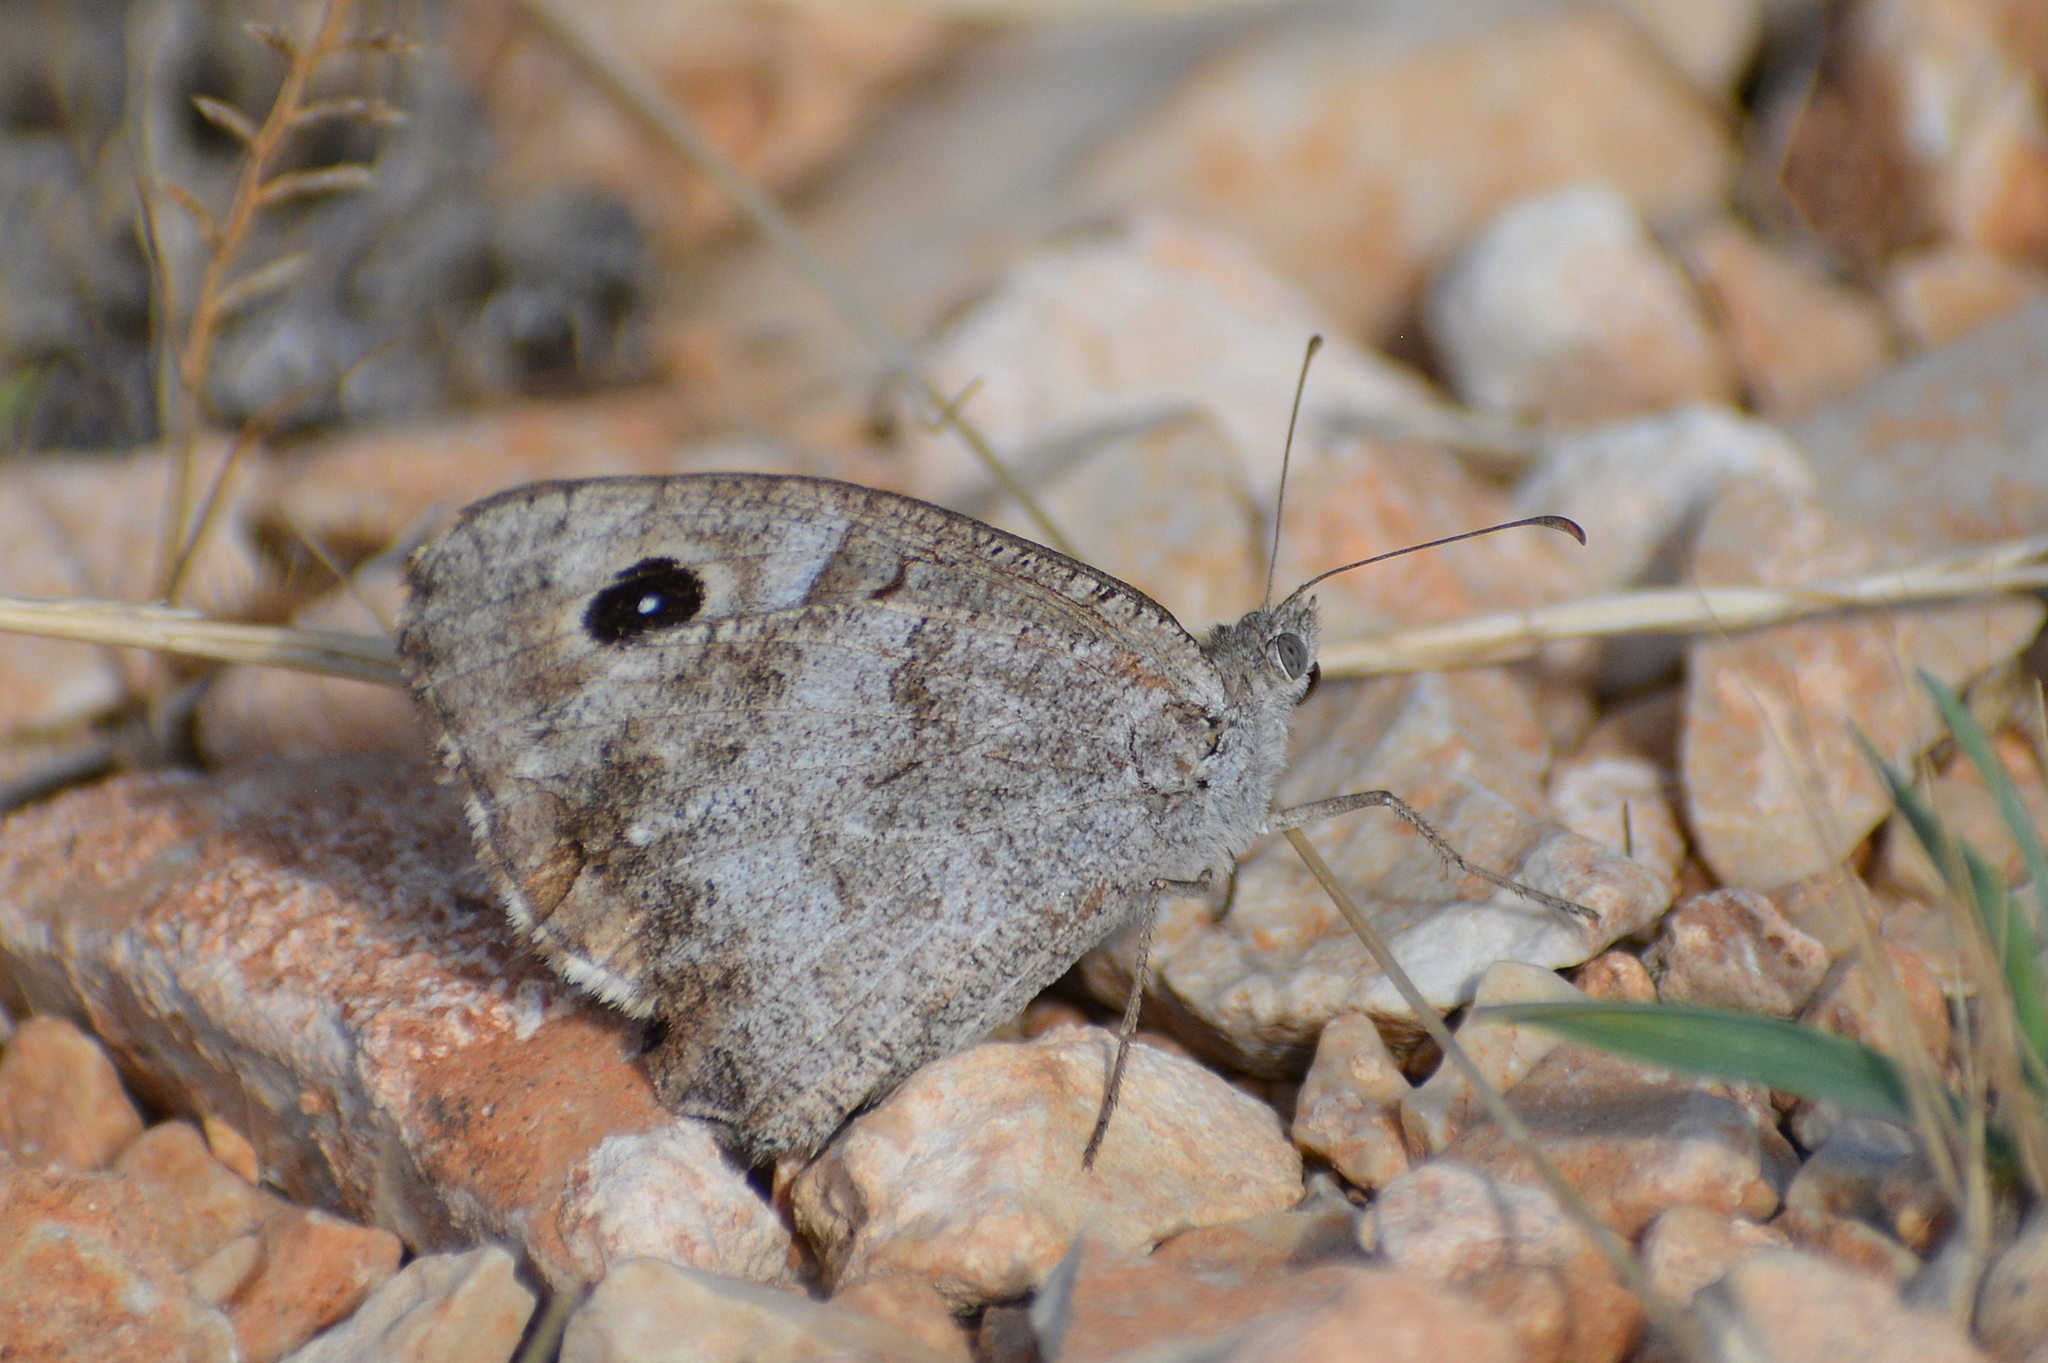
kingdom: Animalia
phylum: Arthropoda
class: Insecta
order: Lepidoptera
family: Nymphalidae
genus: Hipparchia
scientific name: Hipparchia statilinus
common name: Tree grayling
